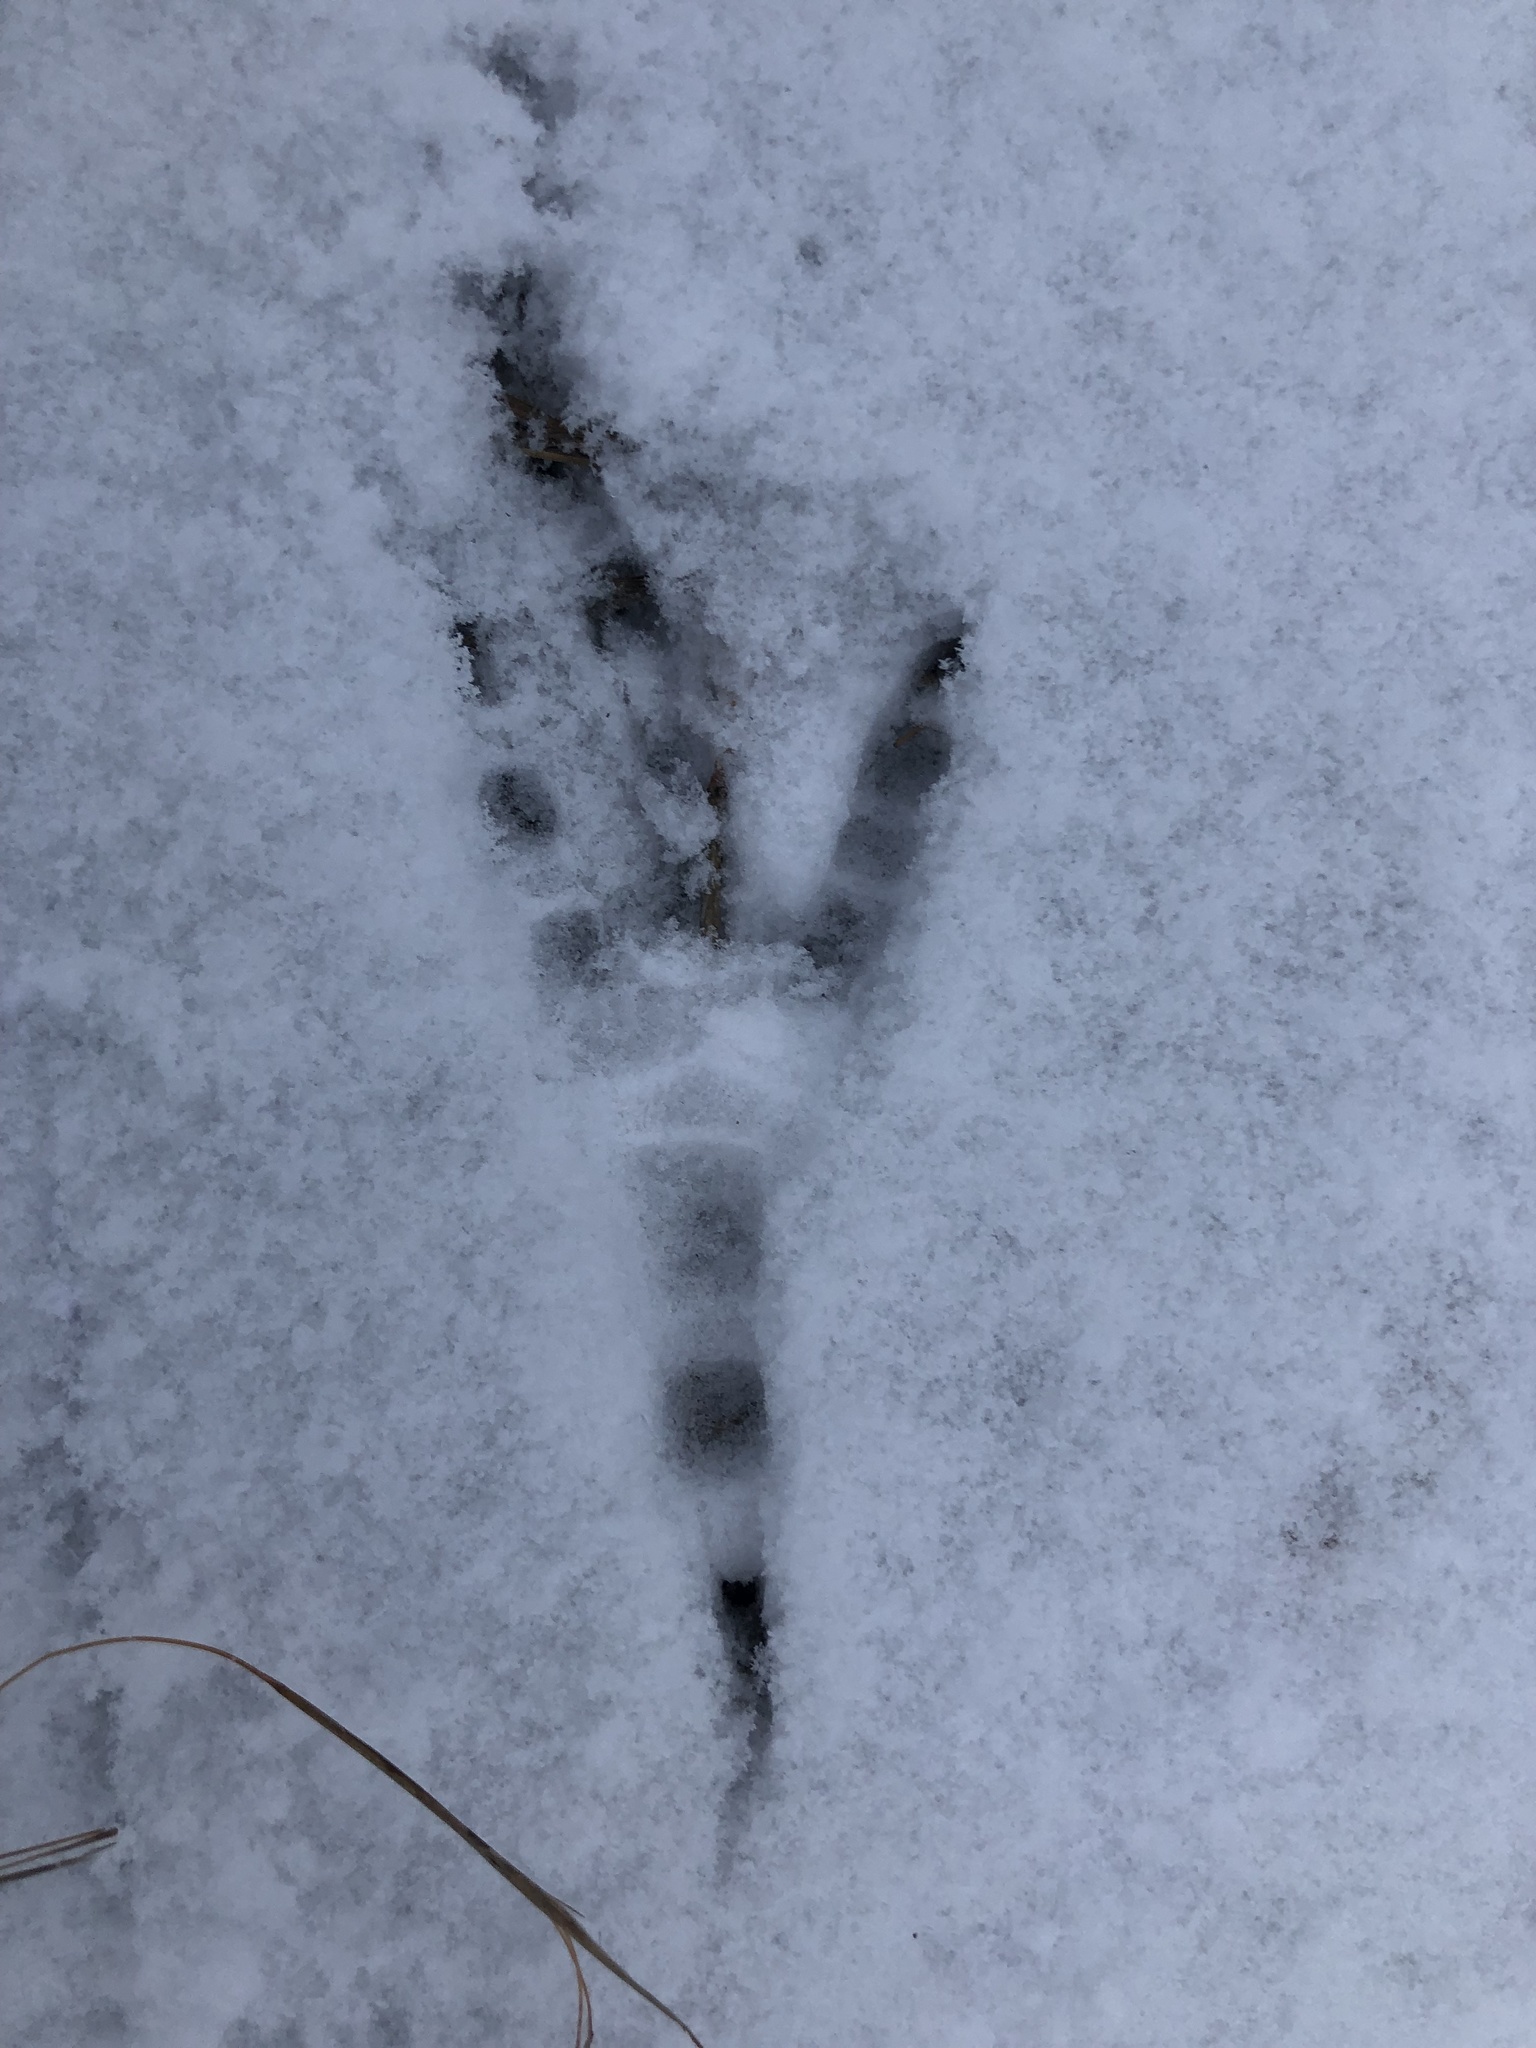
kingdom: Animalia
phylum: Chordata
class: Aves
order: Passeriformes
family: Corvidae
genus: Corvus
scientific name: Corvus corax
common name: Common raven
